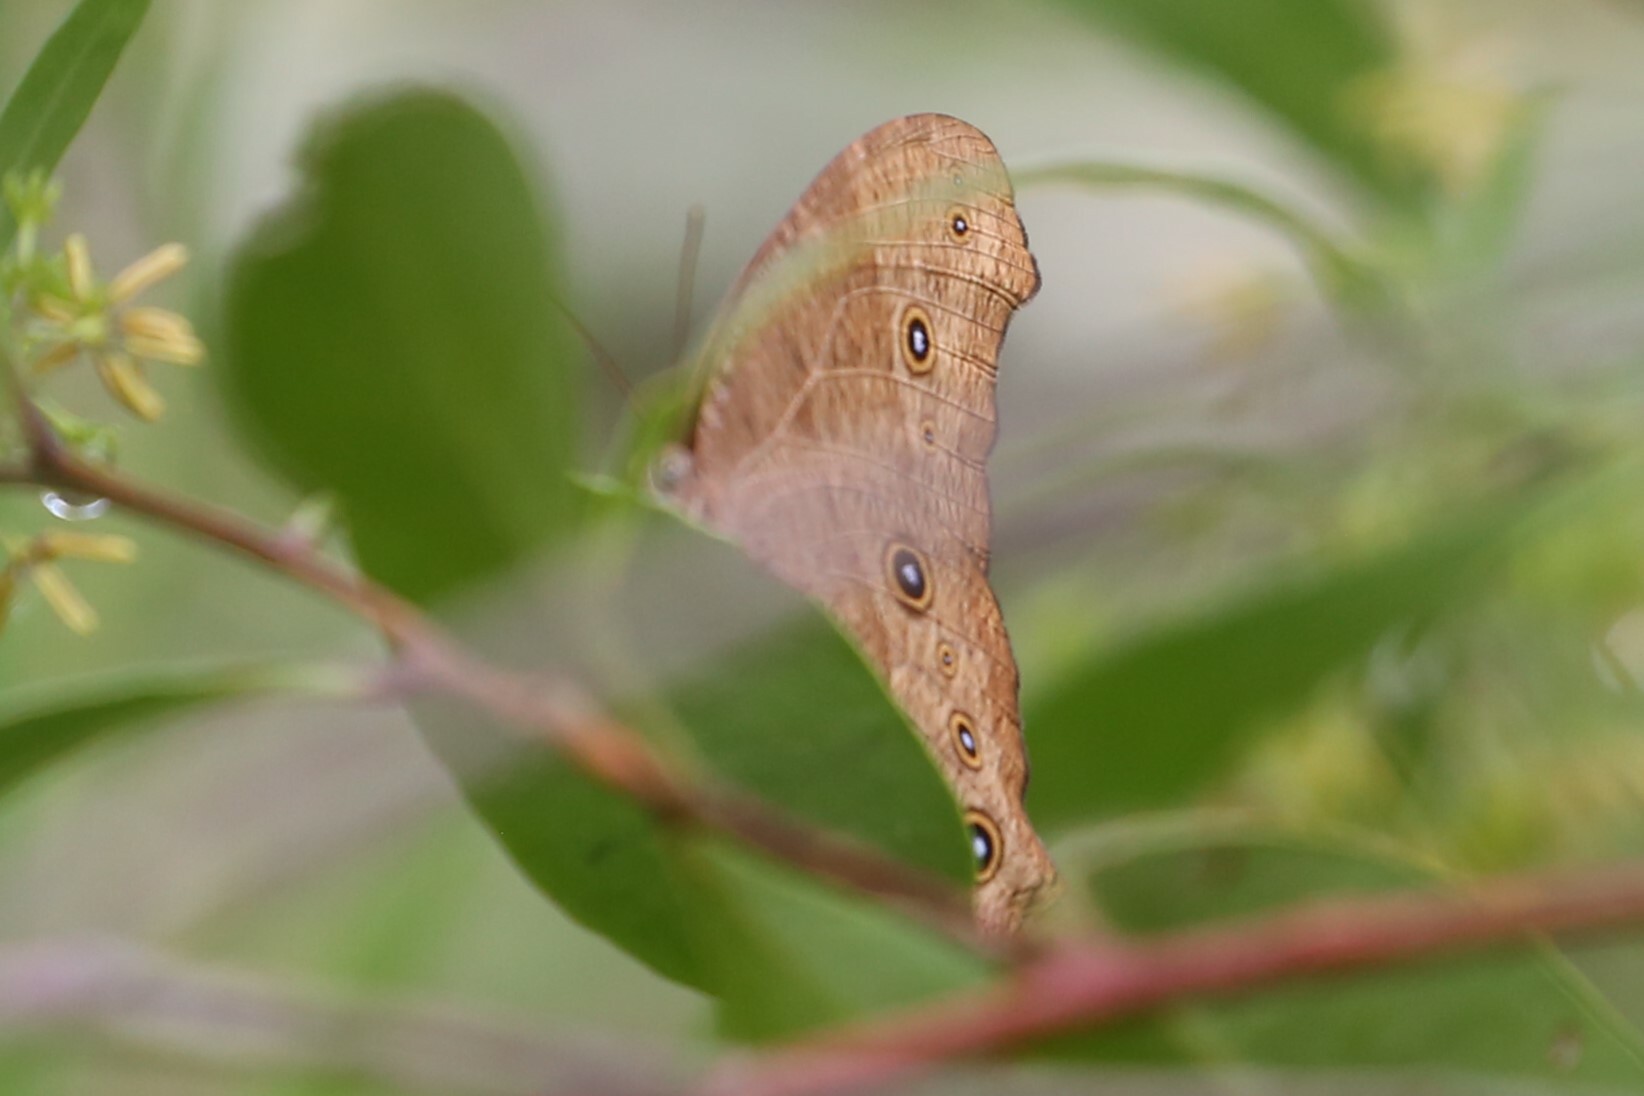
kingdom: Animalia
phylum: Arthropoda
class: Insecta
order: Lepidoptera
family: Nymphalidae
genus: Melanitis
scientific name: Melanitis leda
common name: Twilight brown
